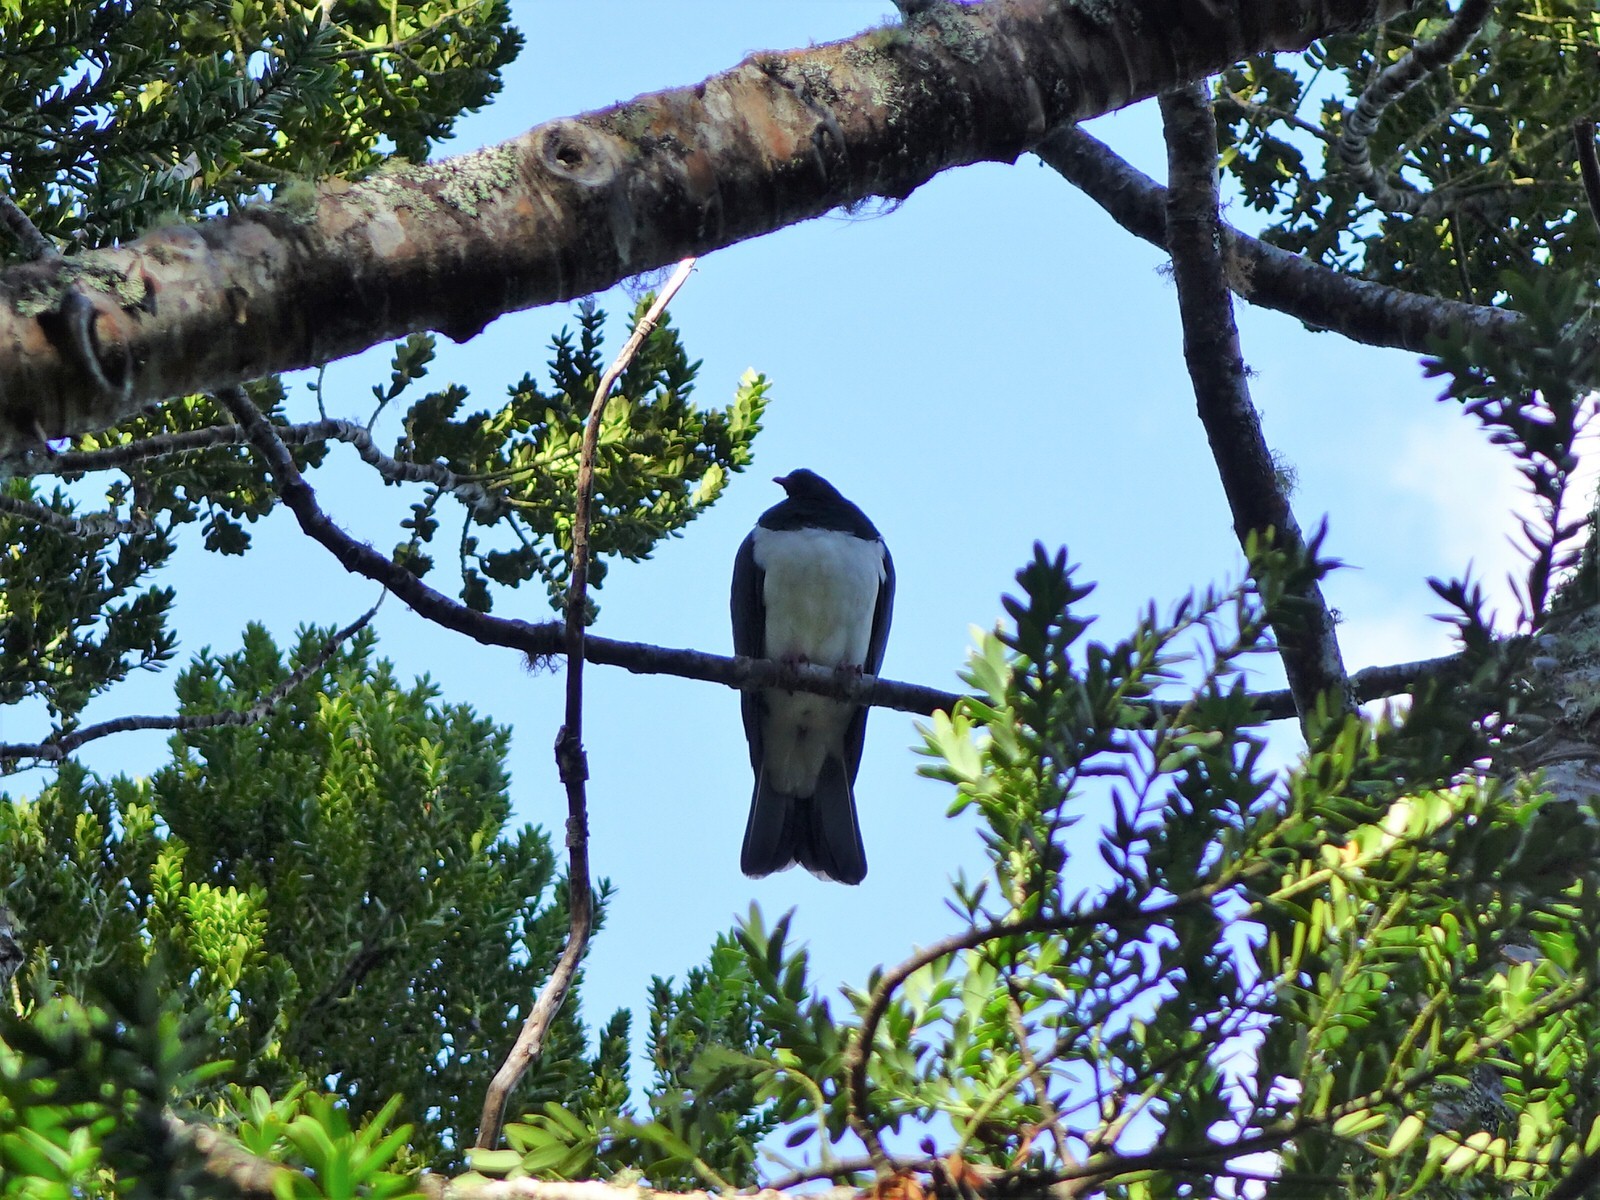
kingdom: Animalia
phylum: Chordata
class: Aves
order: Columbiformes
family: Columbidae
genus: Hemiphaga
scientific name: Hemiphaga novaeseelandiae
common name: New zealand pigeon
